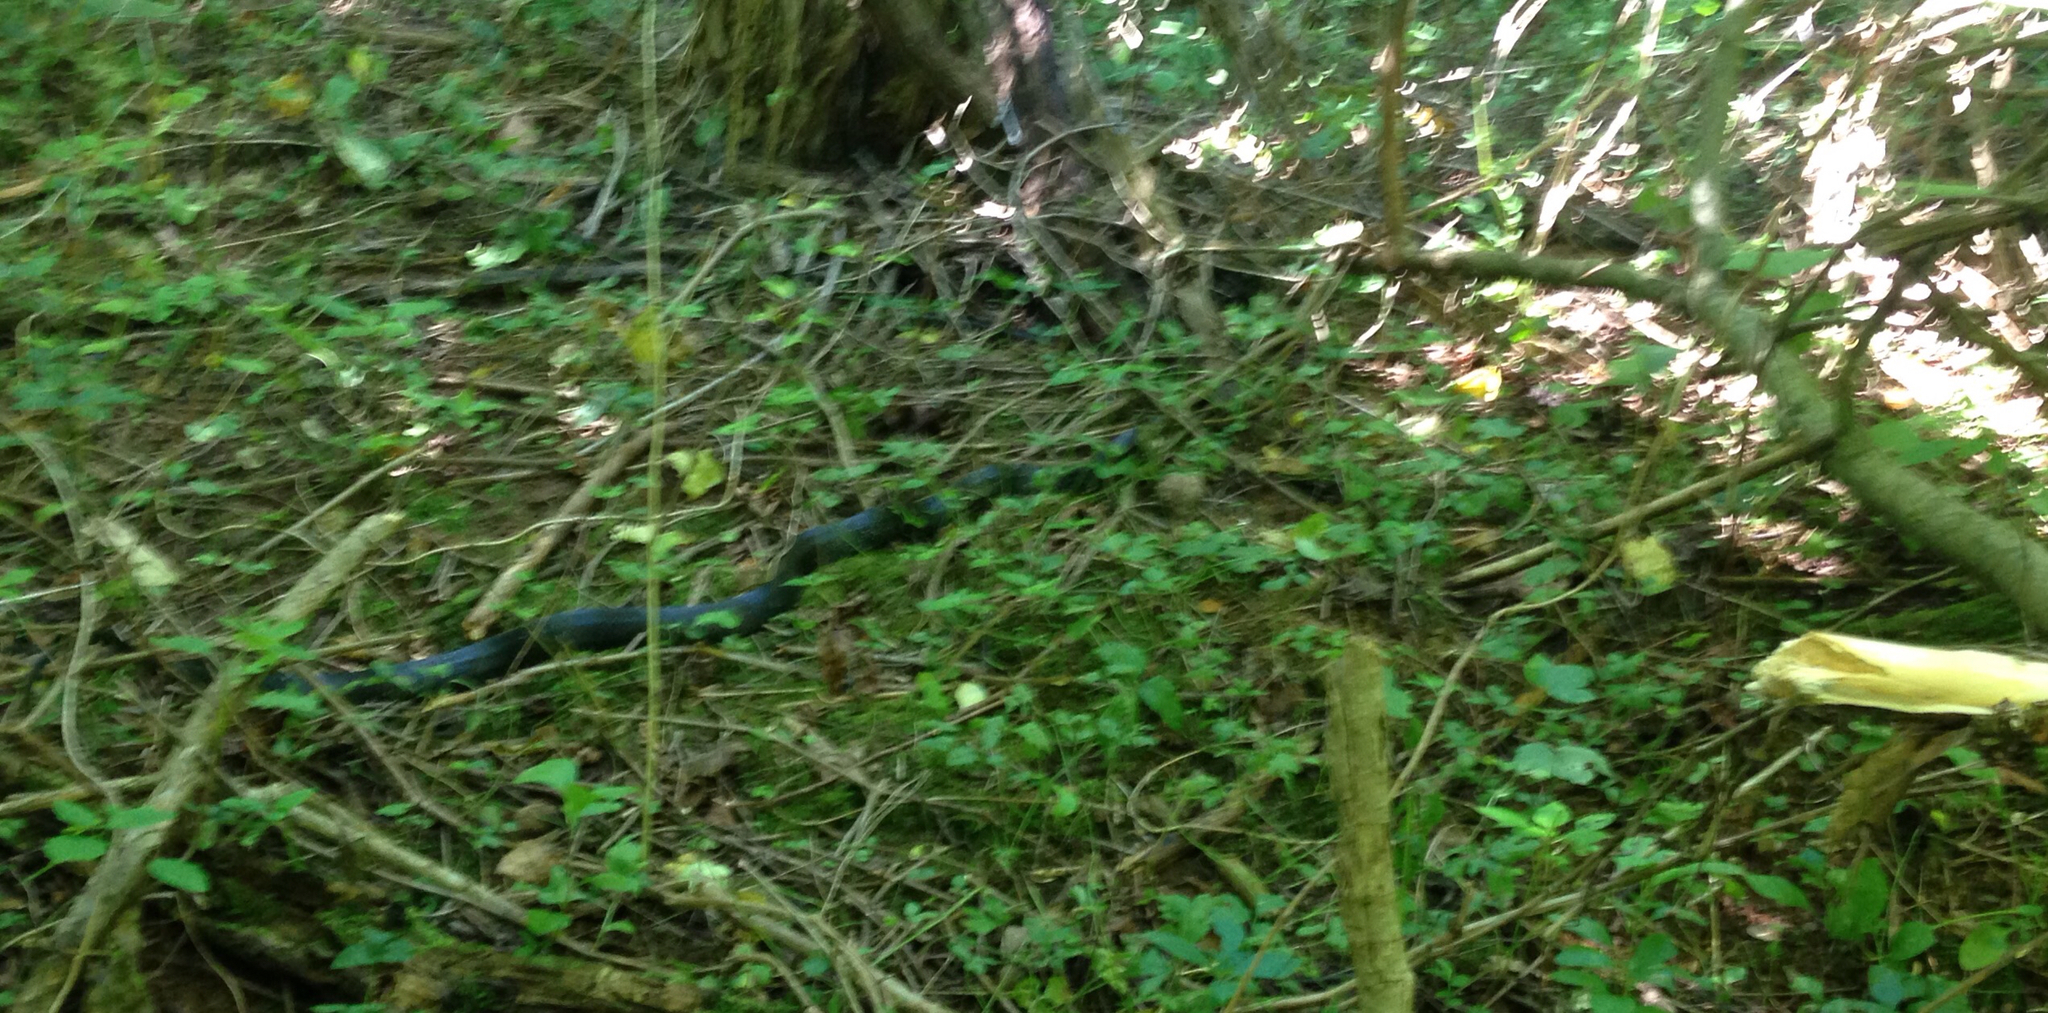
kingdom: Animalia
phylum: Chordata
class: Squamata
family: Colubridae
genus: Pantherophis
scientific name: Pantherophis alleghaniensis
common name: Eastern rat snake
